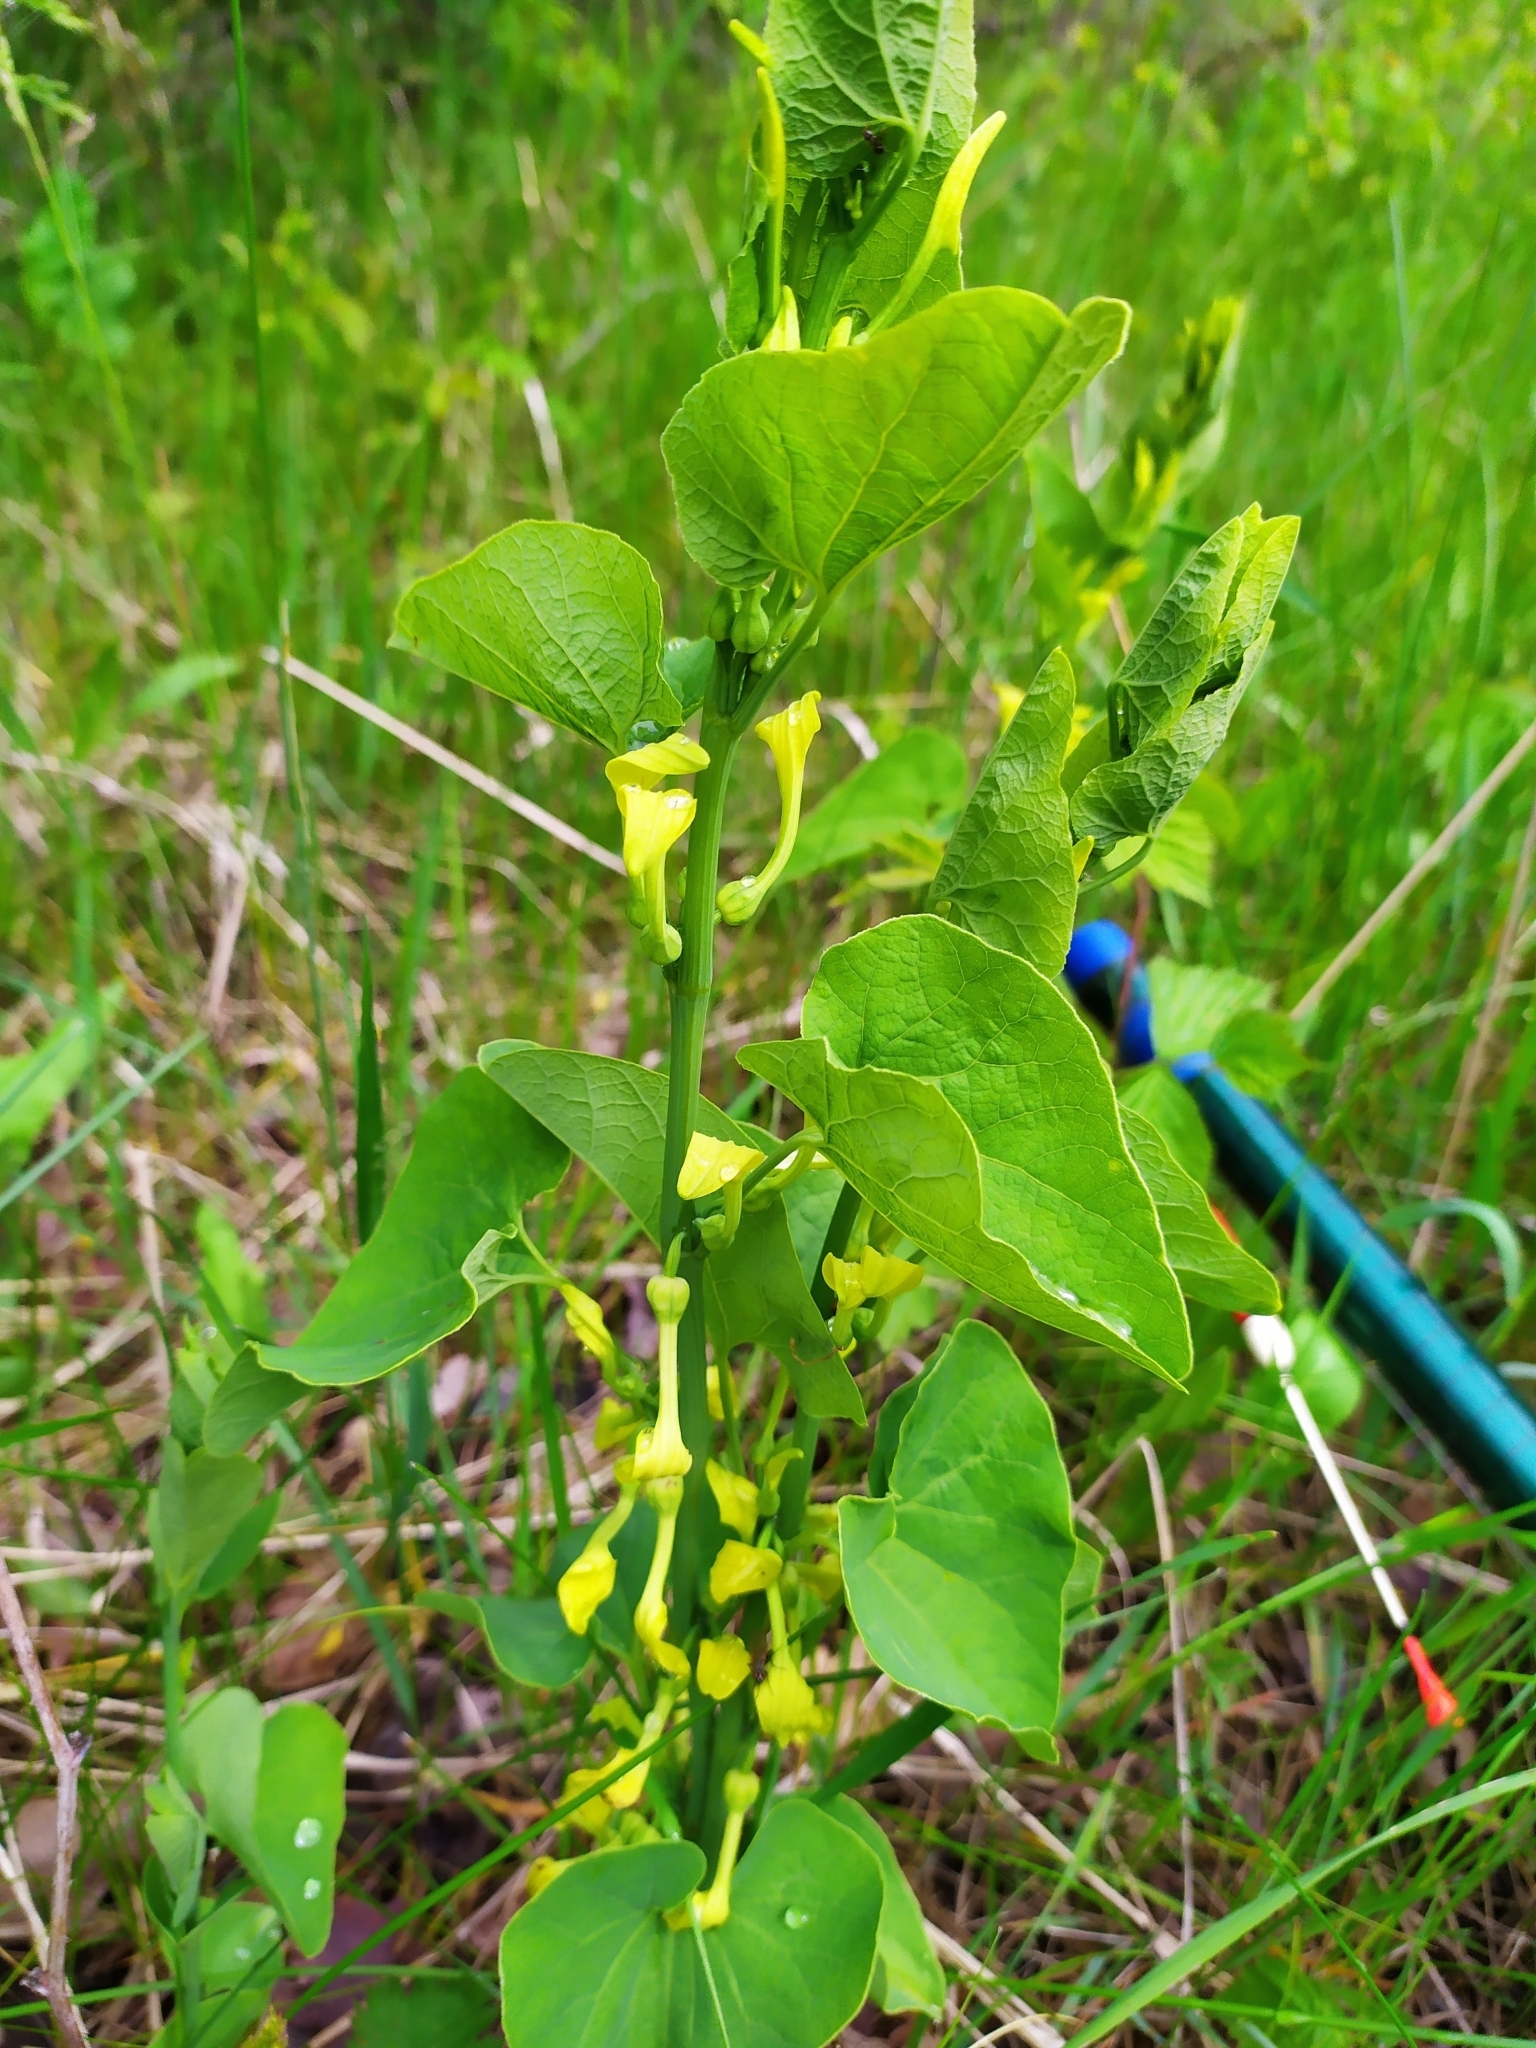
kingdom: Plantae
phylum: Tracheophyta
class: Magnoliopsida
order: Piperales
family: Aristolochiaceae
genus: Aristolochia
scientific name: Aristolochia clematitis
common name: Birthwort
